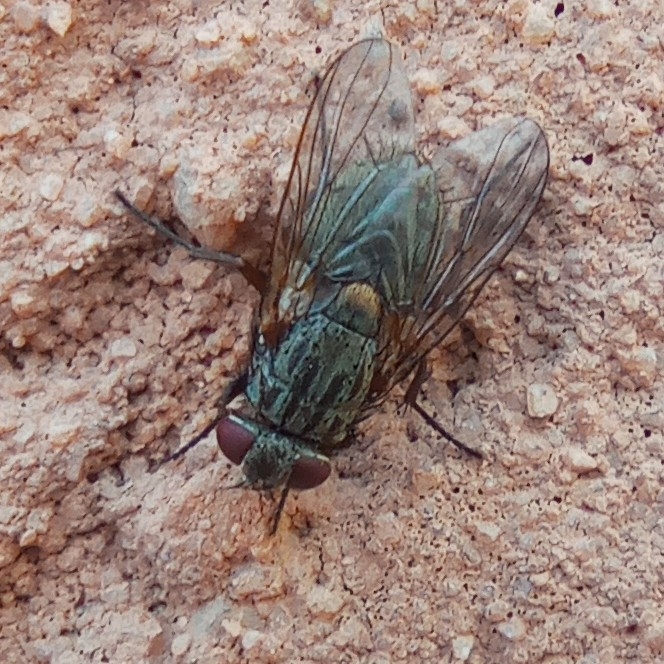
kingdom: Animalia
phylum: Arthropoda
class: Insecta
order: Diptera
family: Muscidae
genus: Muscina
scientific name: Muscina stabulans
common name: False stable fly
